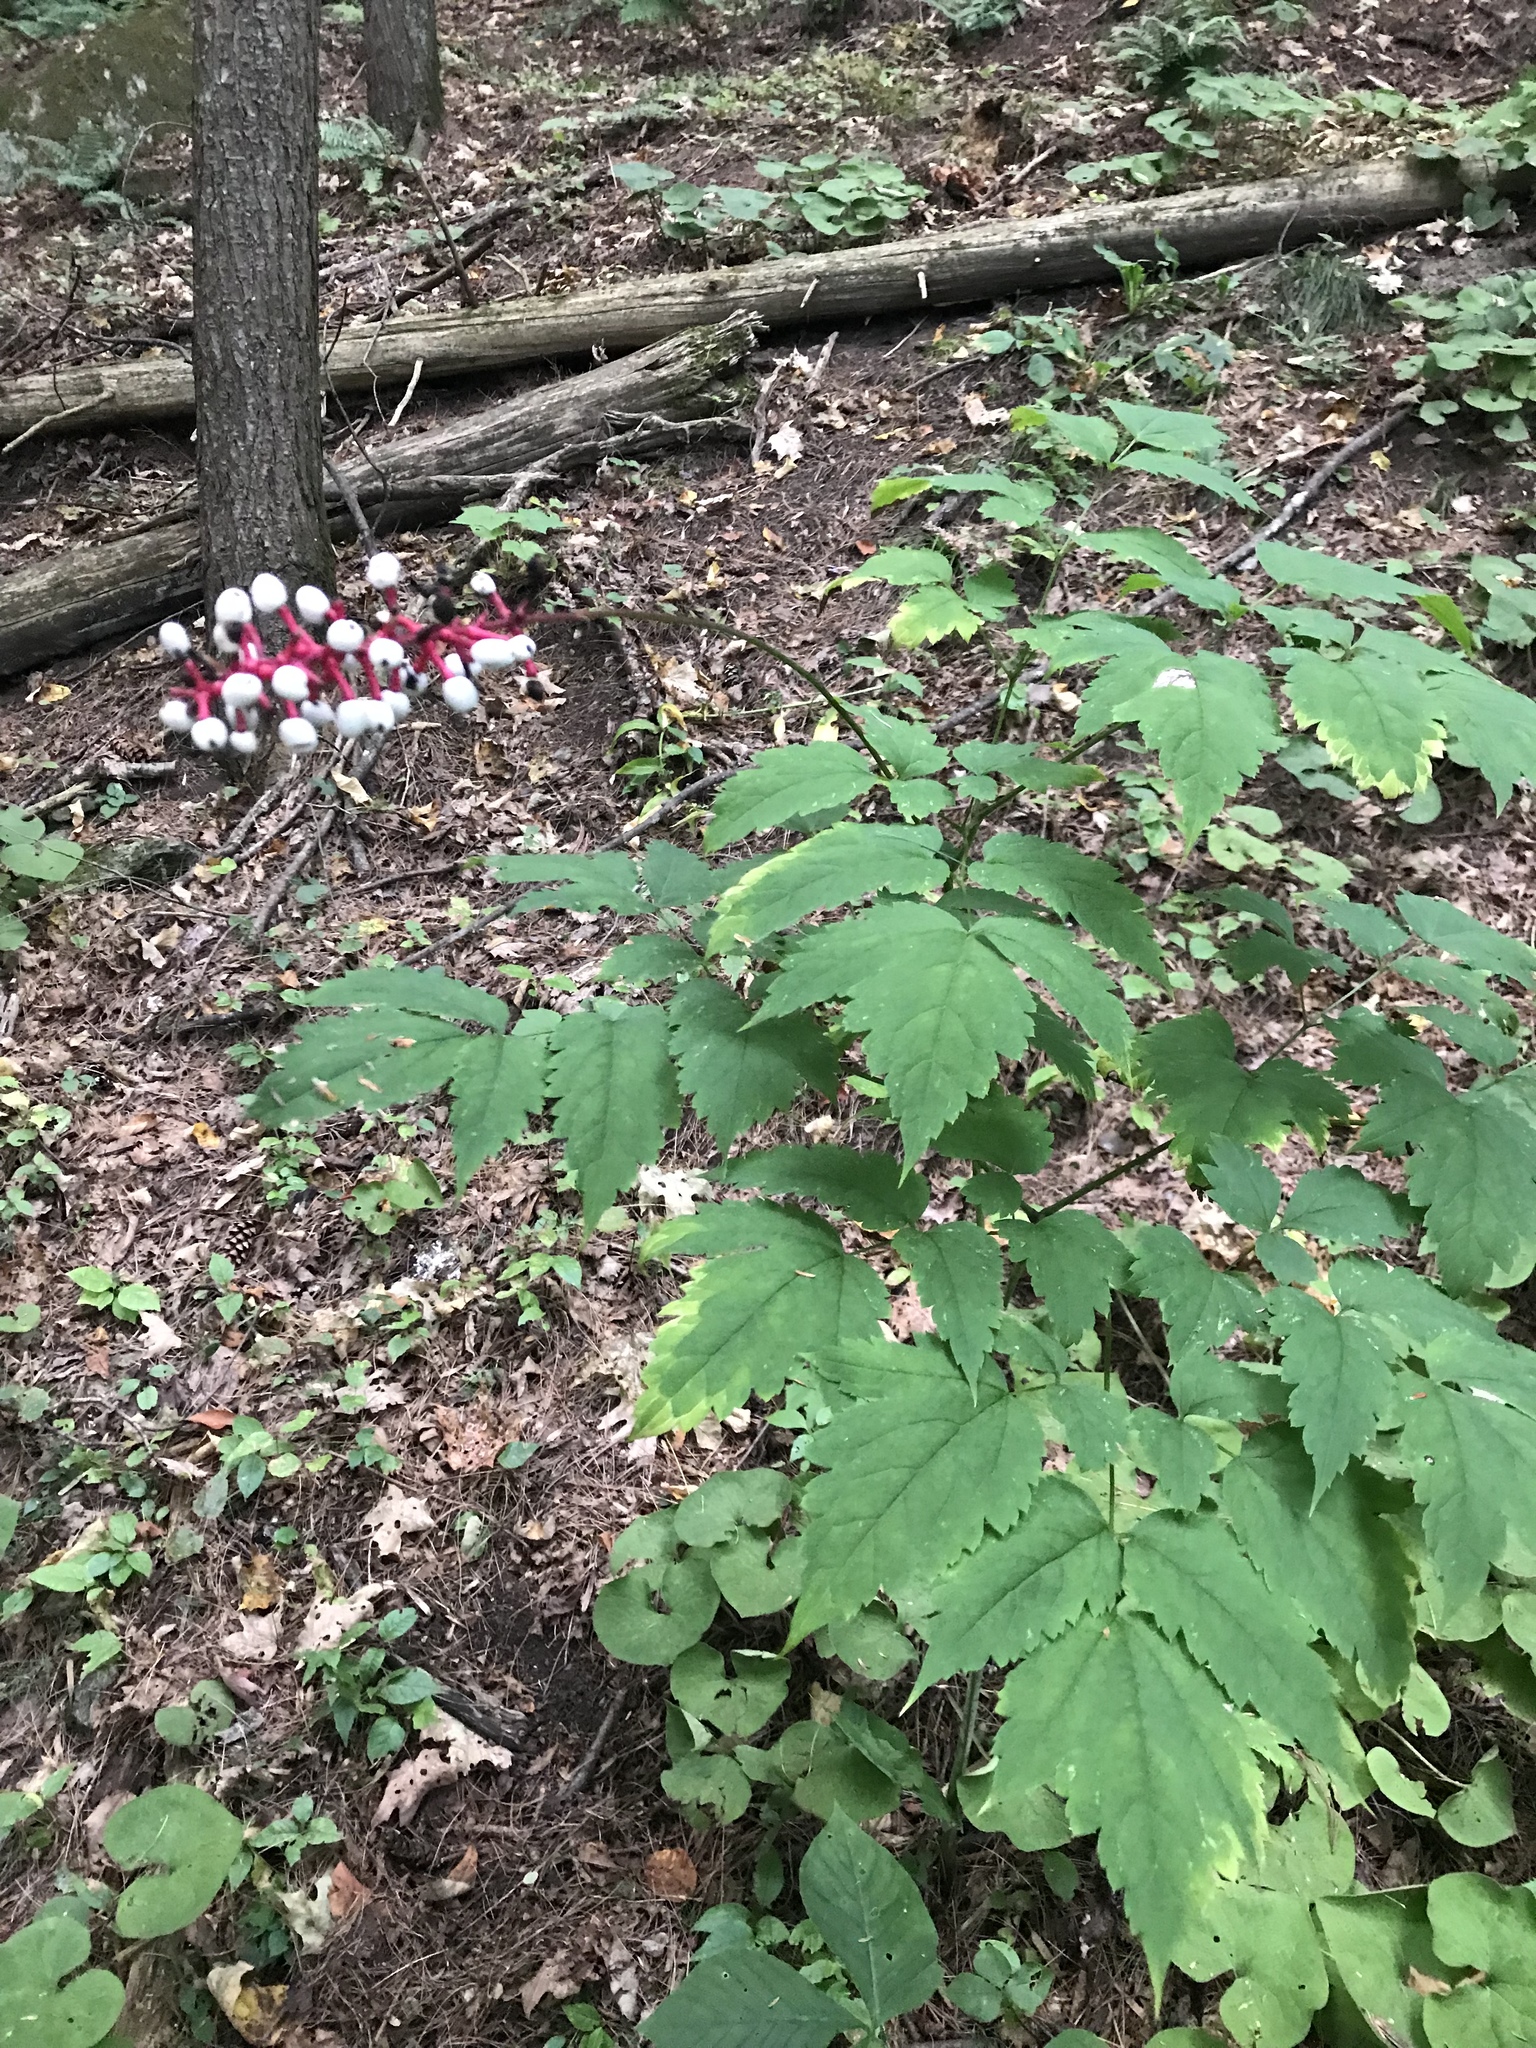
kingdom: Plantae
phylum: Tracheophyta
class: Magnoliopsida
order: Ranunculales
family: Ranunculaceae
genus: Actaea
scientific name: Actaea pachypoda
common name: Doll's-eyes
